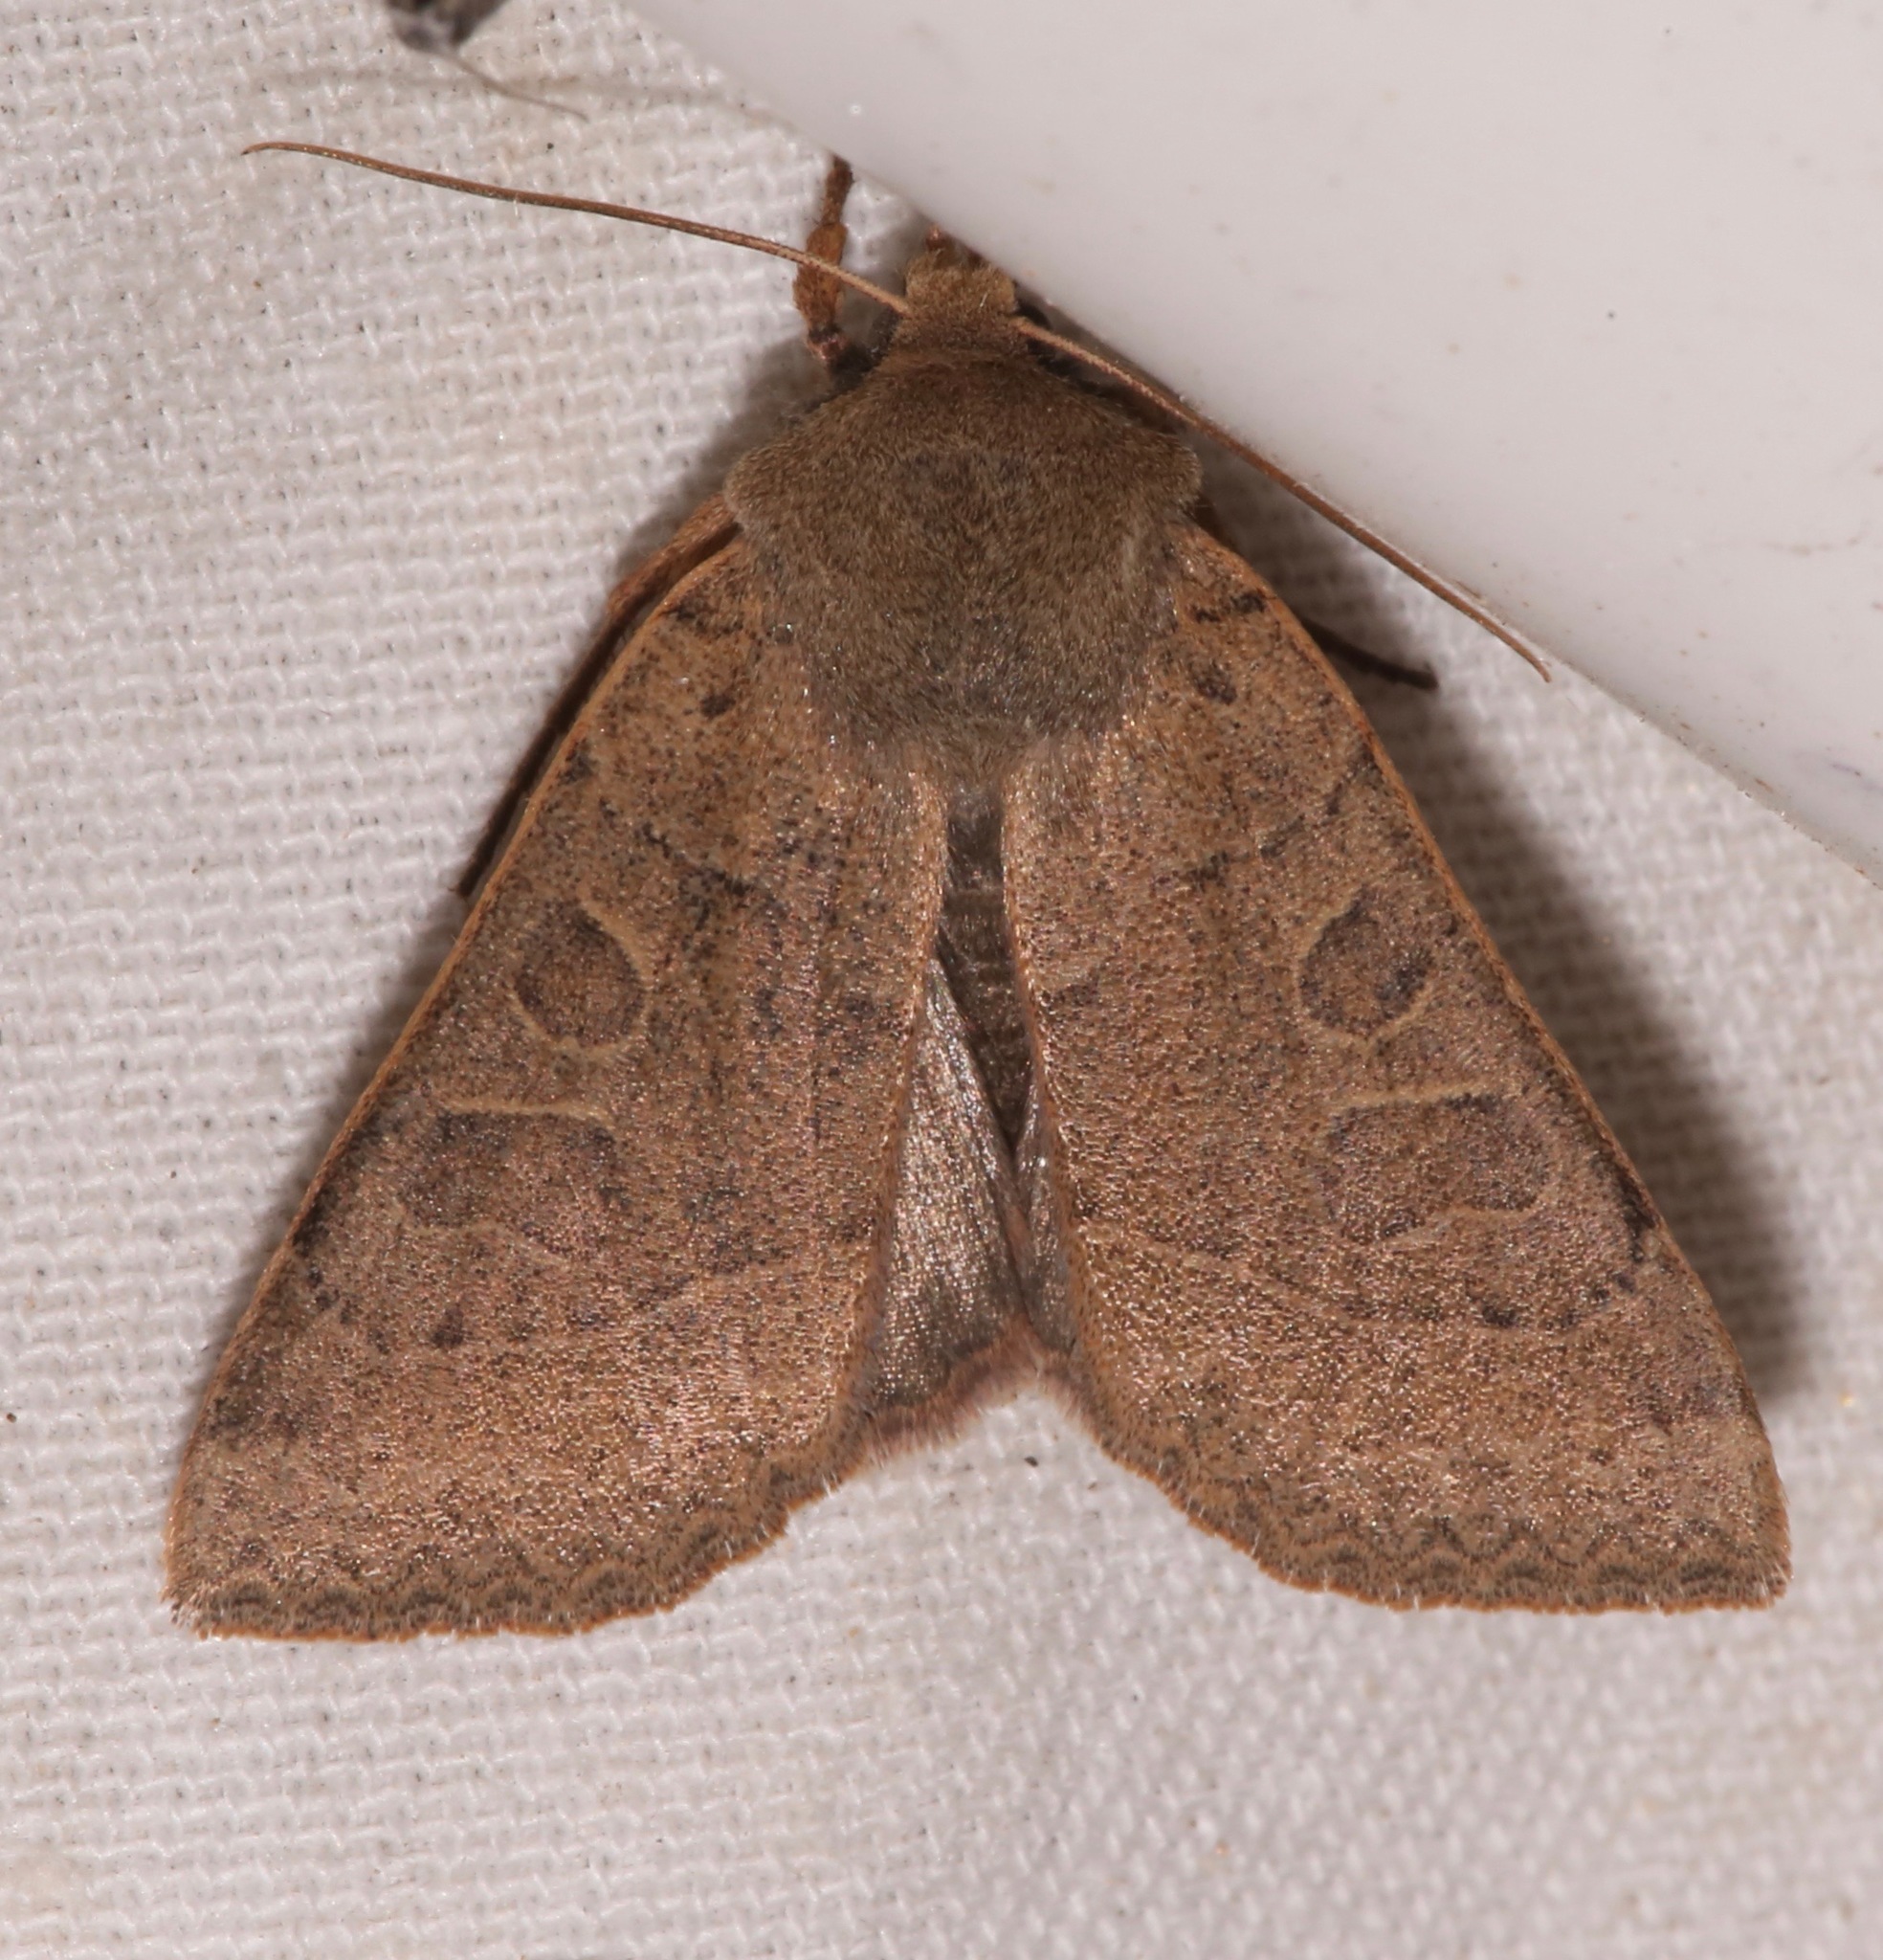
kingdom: Animalia
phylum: Arthropoda
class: Insecta
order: Lepidoptera
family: Noctuidae
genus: Mesogona
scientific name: Mesogona olivata
